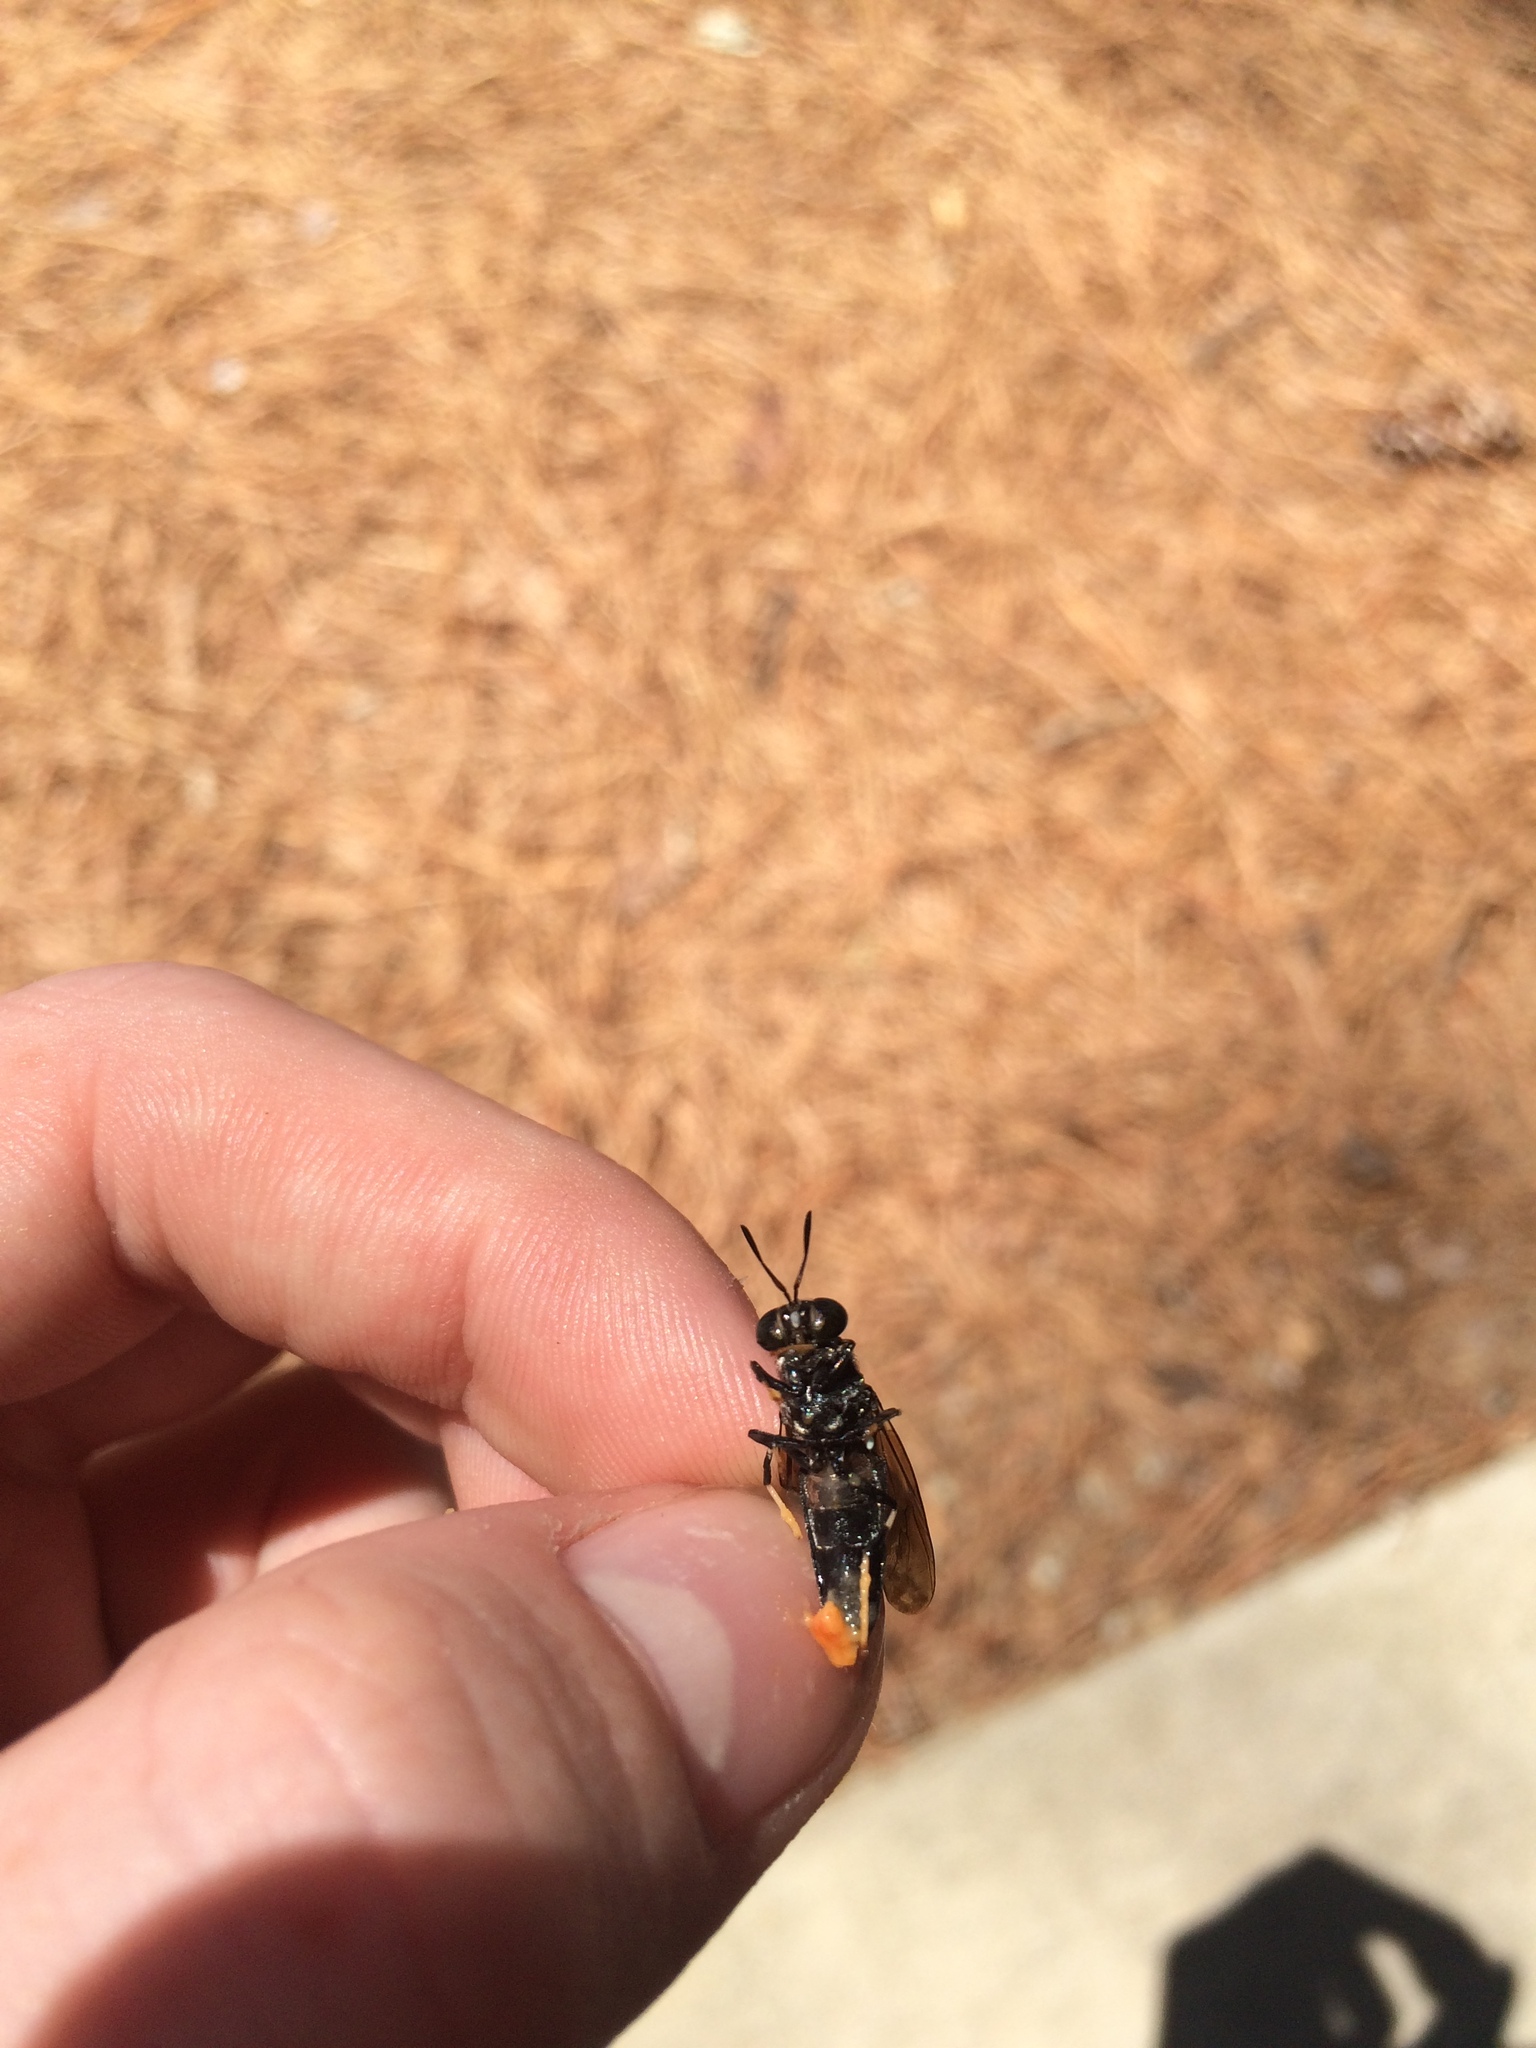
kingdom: Animalia
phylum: Arthropoda
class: Insecta
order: Diptera
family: Stratiomyidae
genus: Hermetia
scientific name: Hermetia illucens
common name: Black soldier fly
